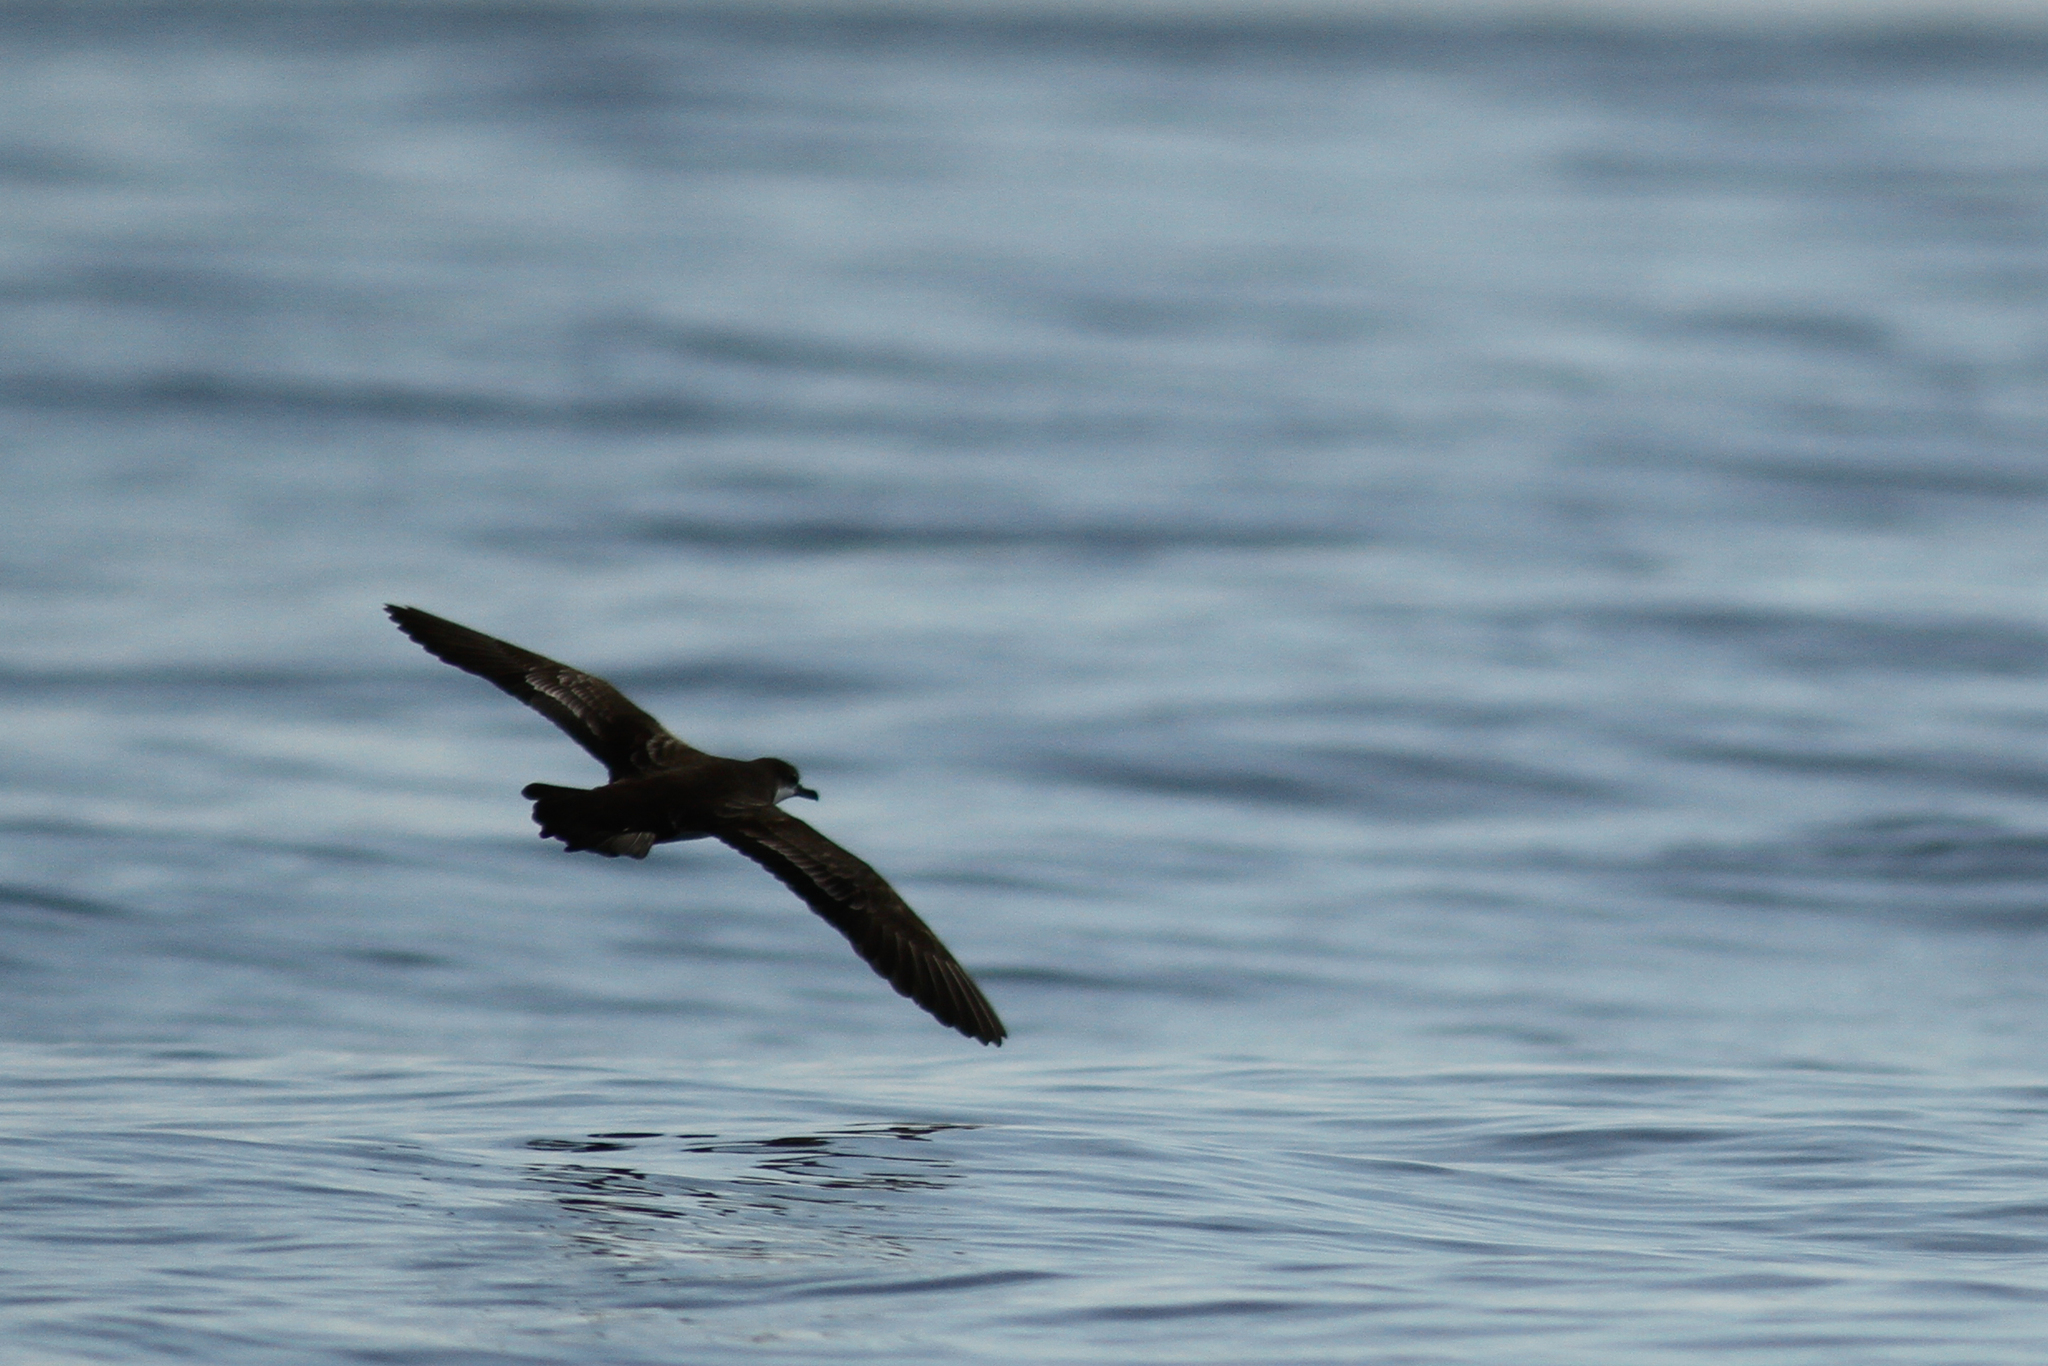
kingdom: Animalia
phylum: Chordata
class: Aves
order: Procellariiformes
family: Procellariidae
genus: Puffinus
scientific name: Puffinus subalaris
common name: Galapagos shearwater
